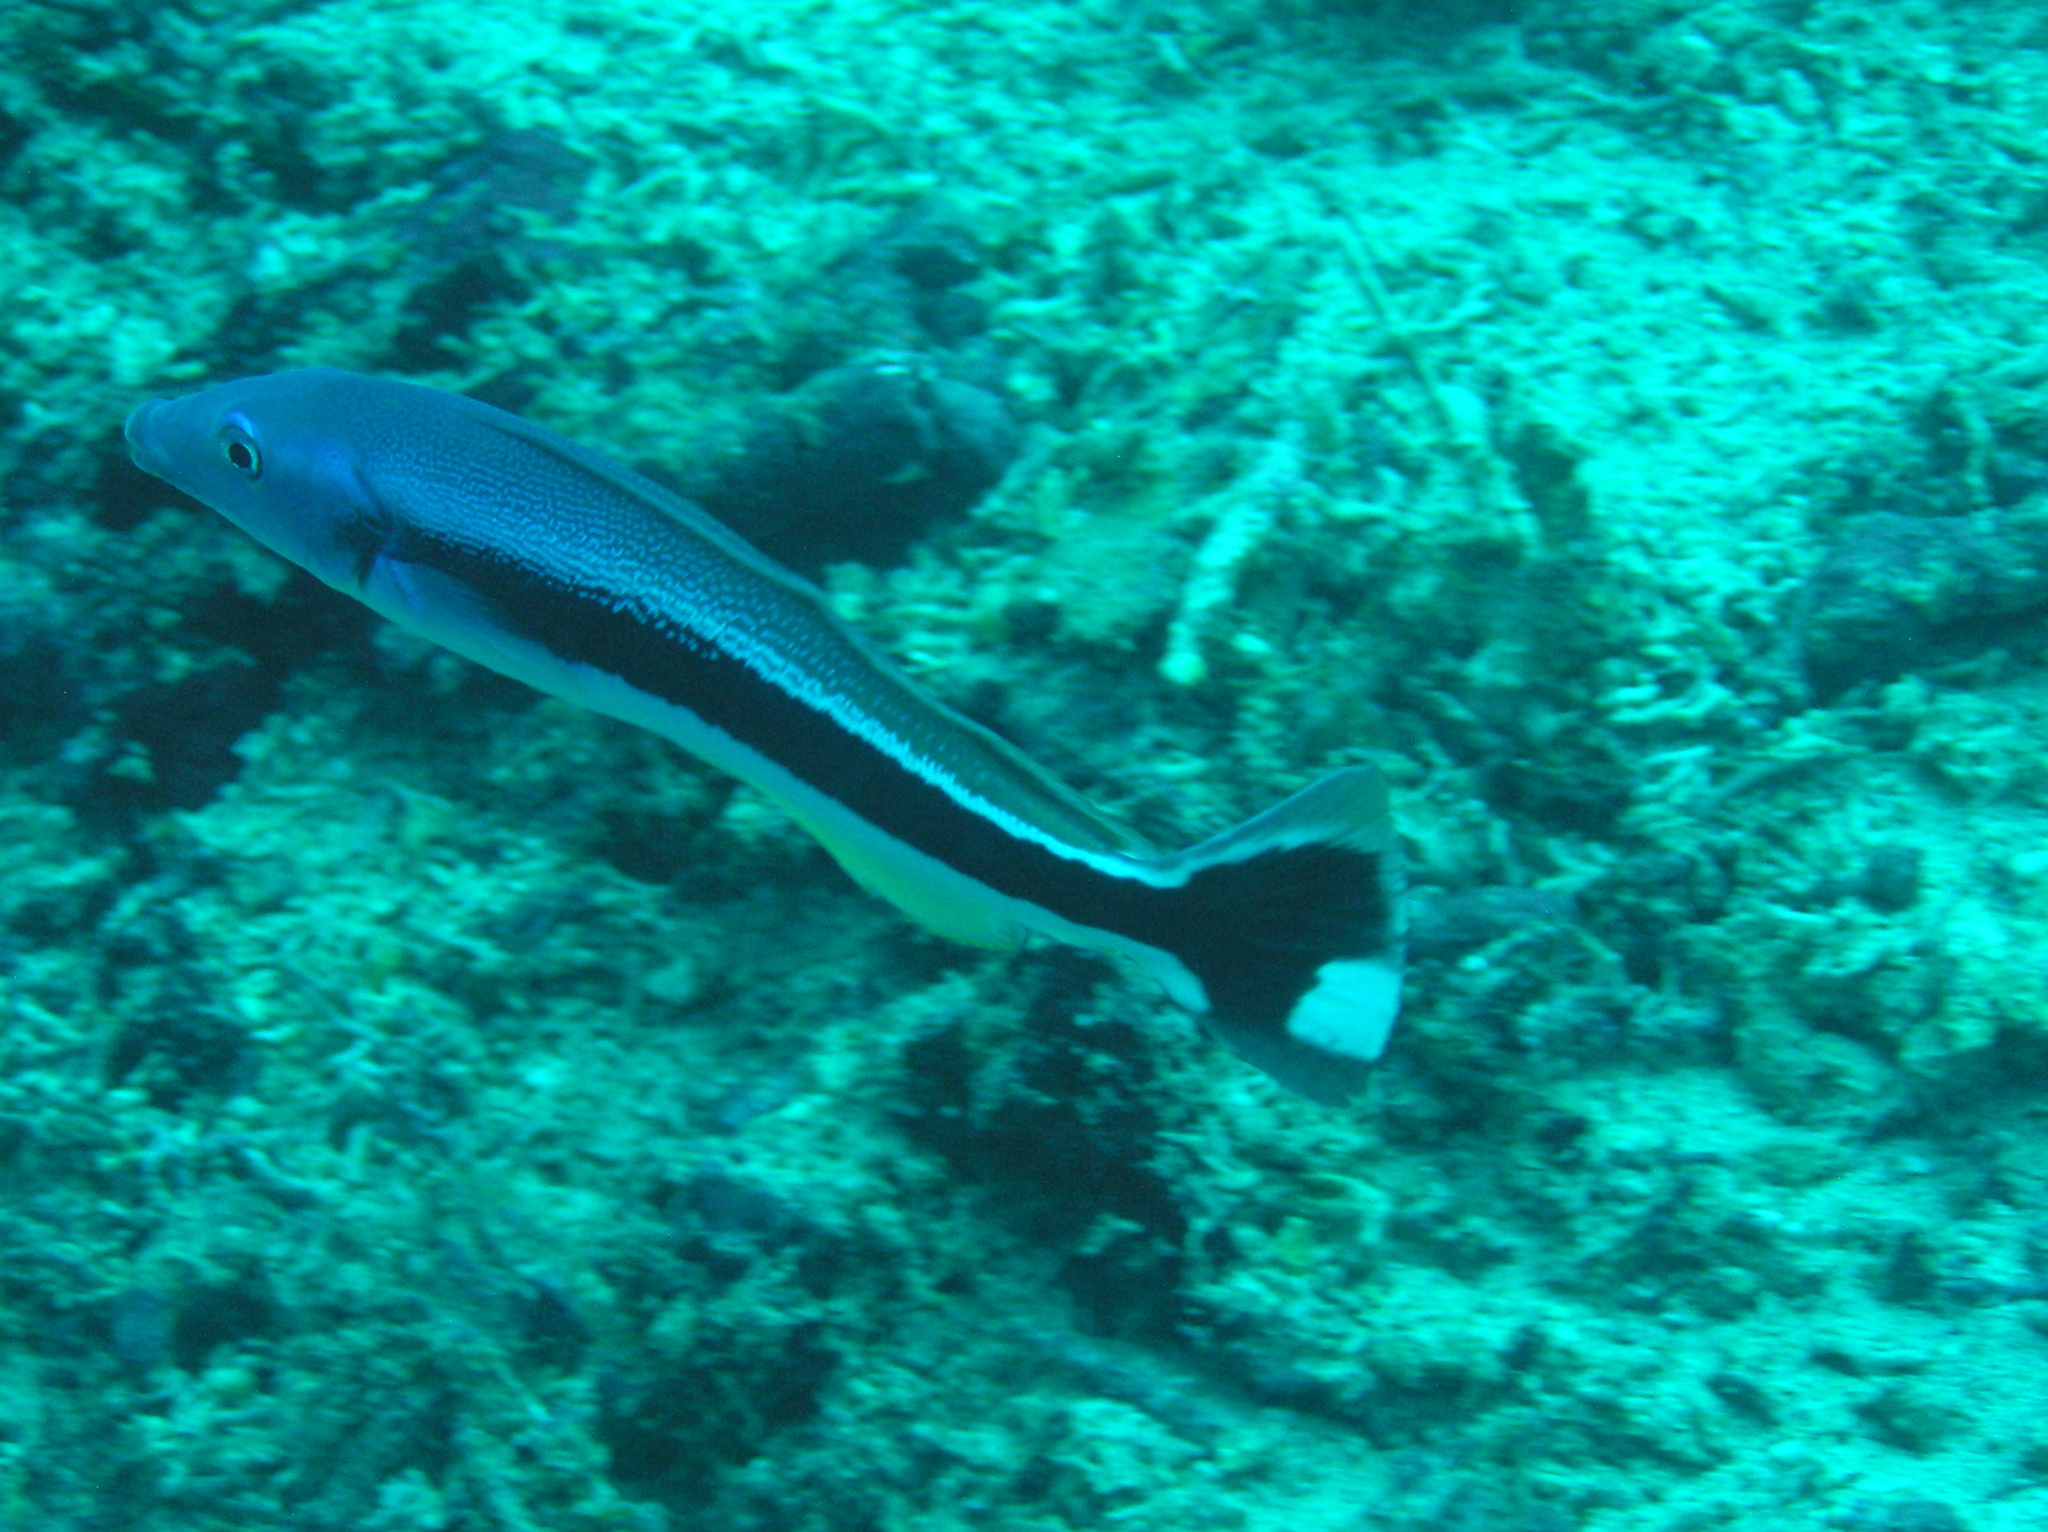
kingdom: Animalia
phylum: Chordata
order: Perciformes
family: Malacanthidae
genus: Malacanthus
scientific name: Malacanthus latovittatus
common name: Blue blanquillo
